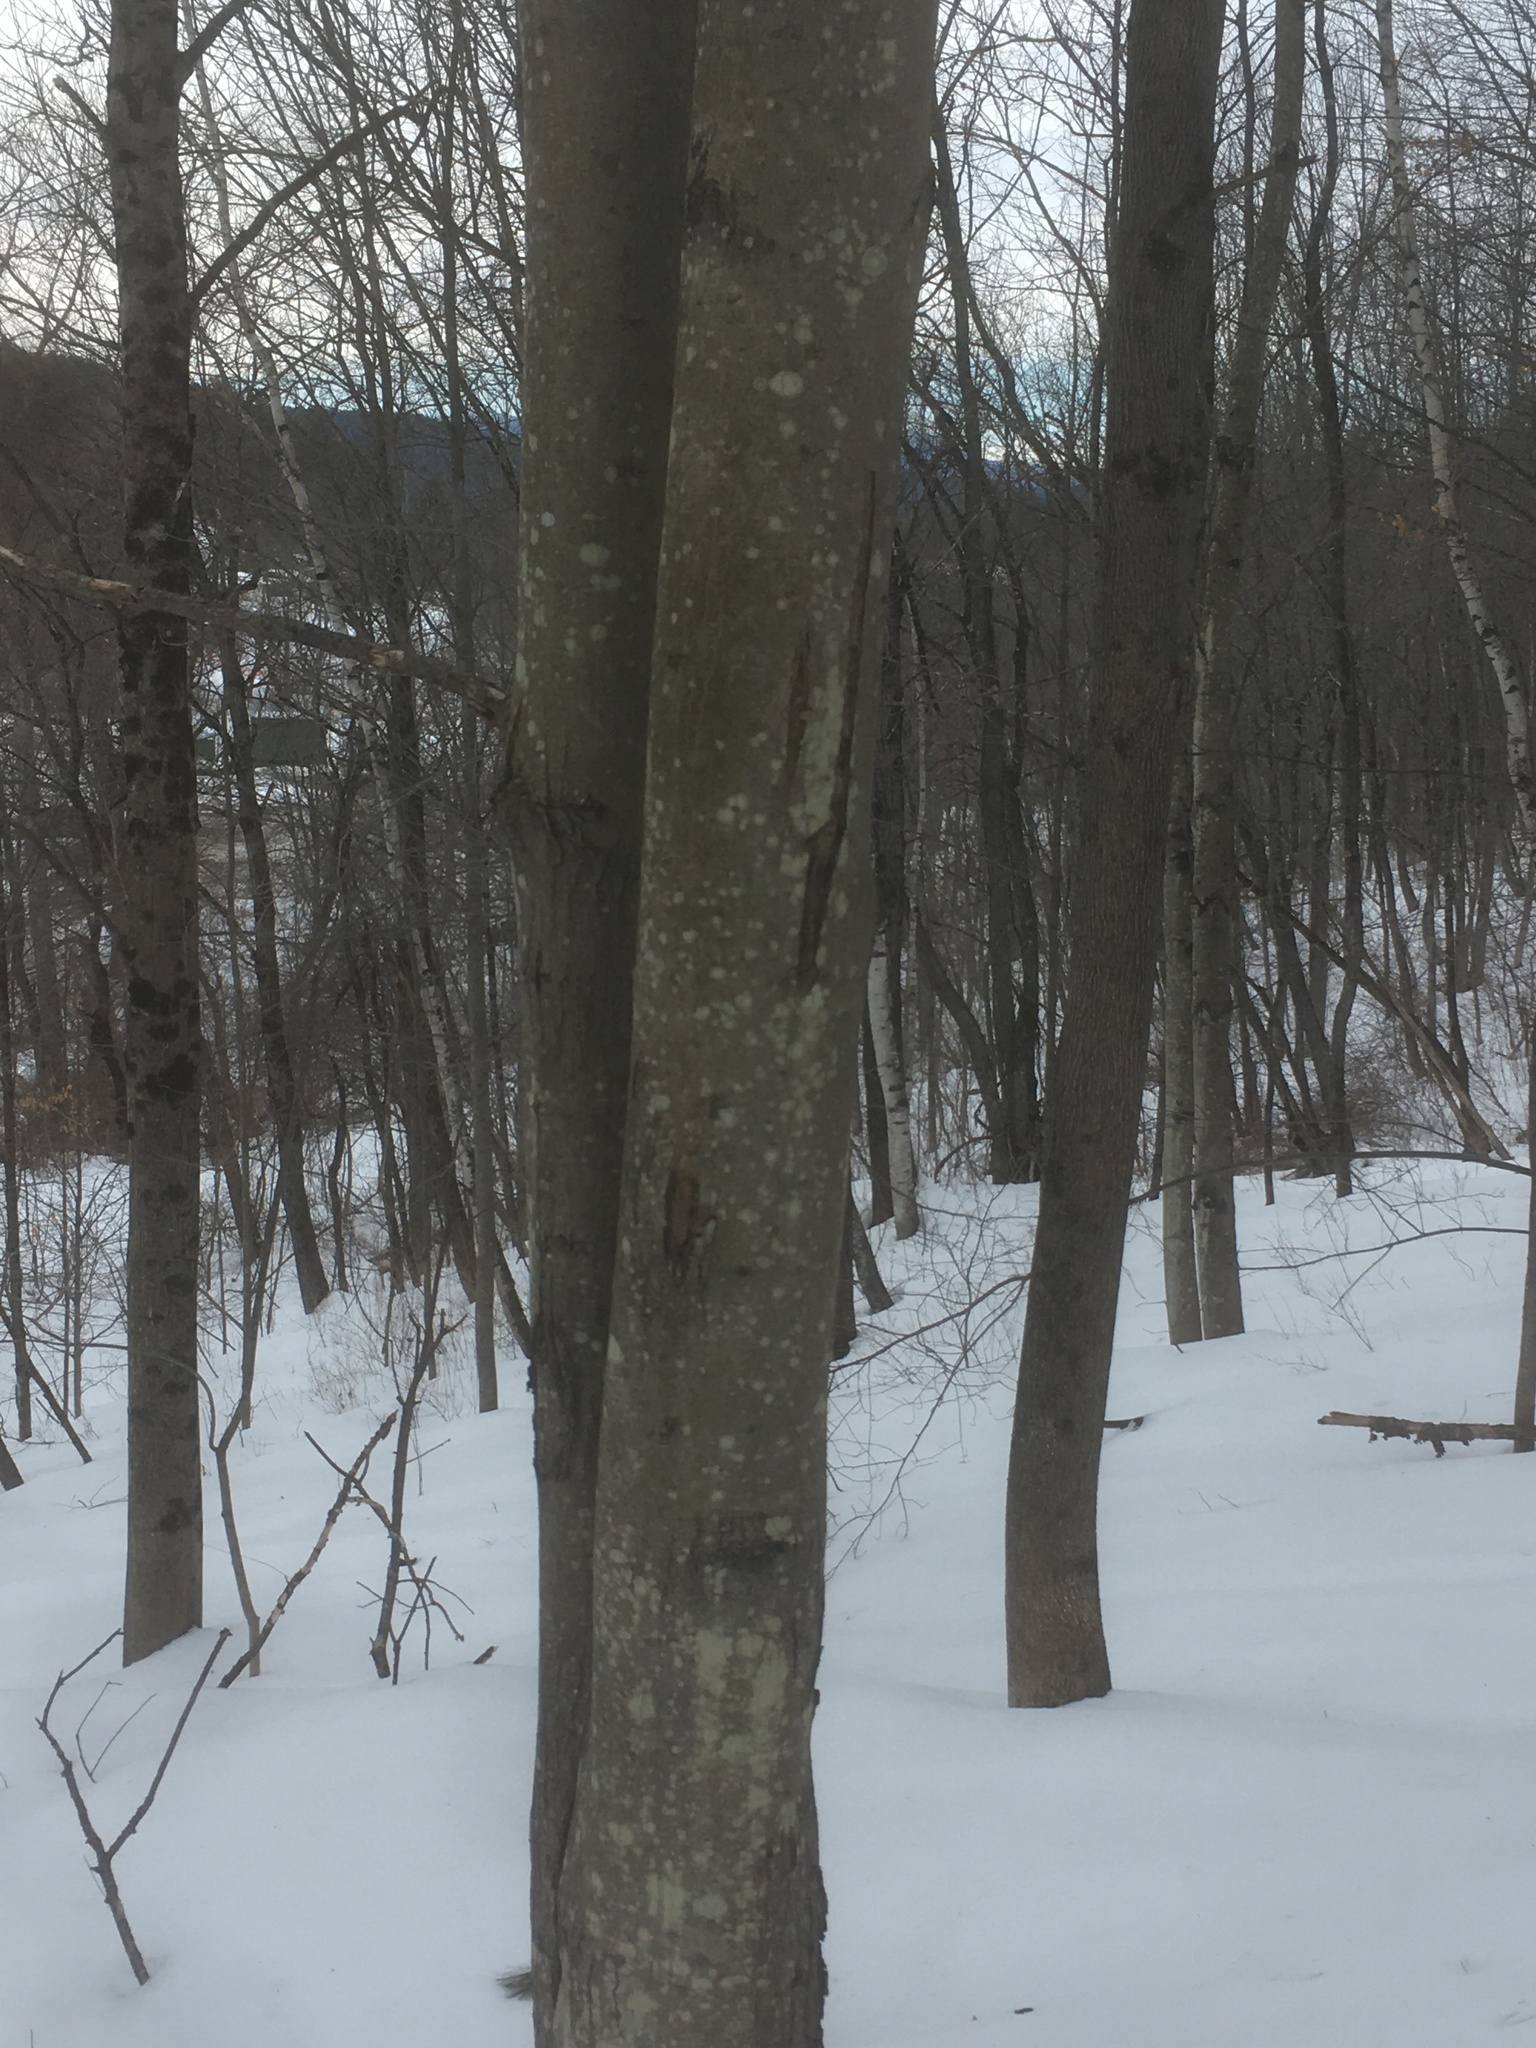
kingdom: Plantae
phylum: Tracheophyta
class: Magnoliopsida
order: Sapindales
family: Sapindaceae
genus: Acer
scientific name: Acer rubrum
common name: Red maple
